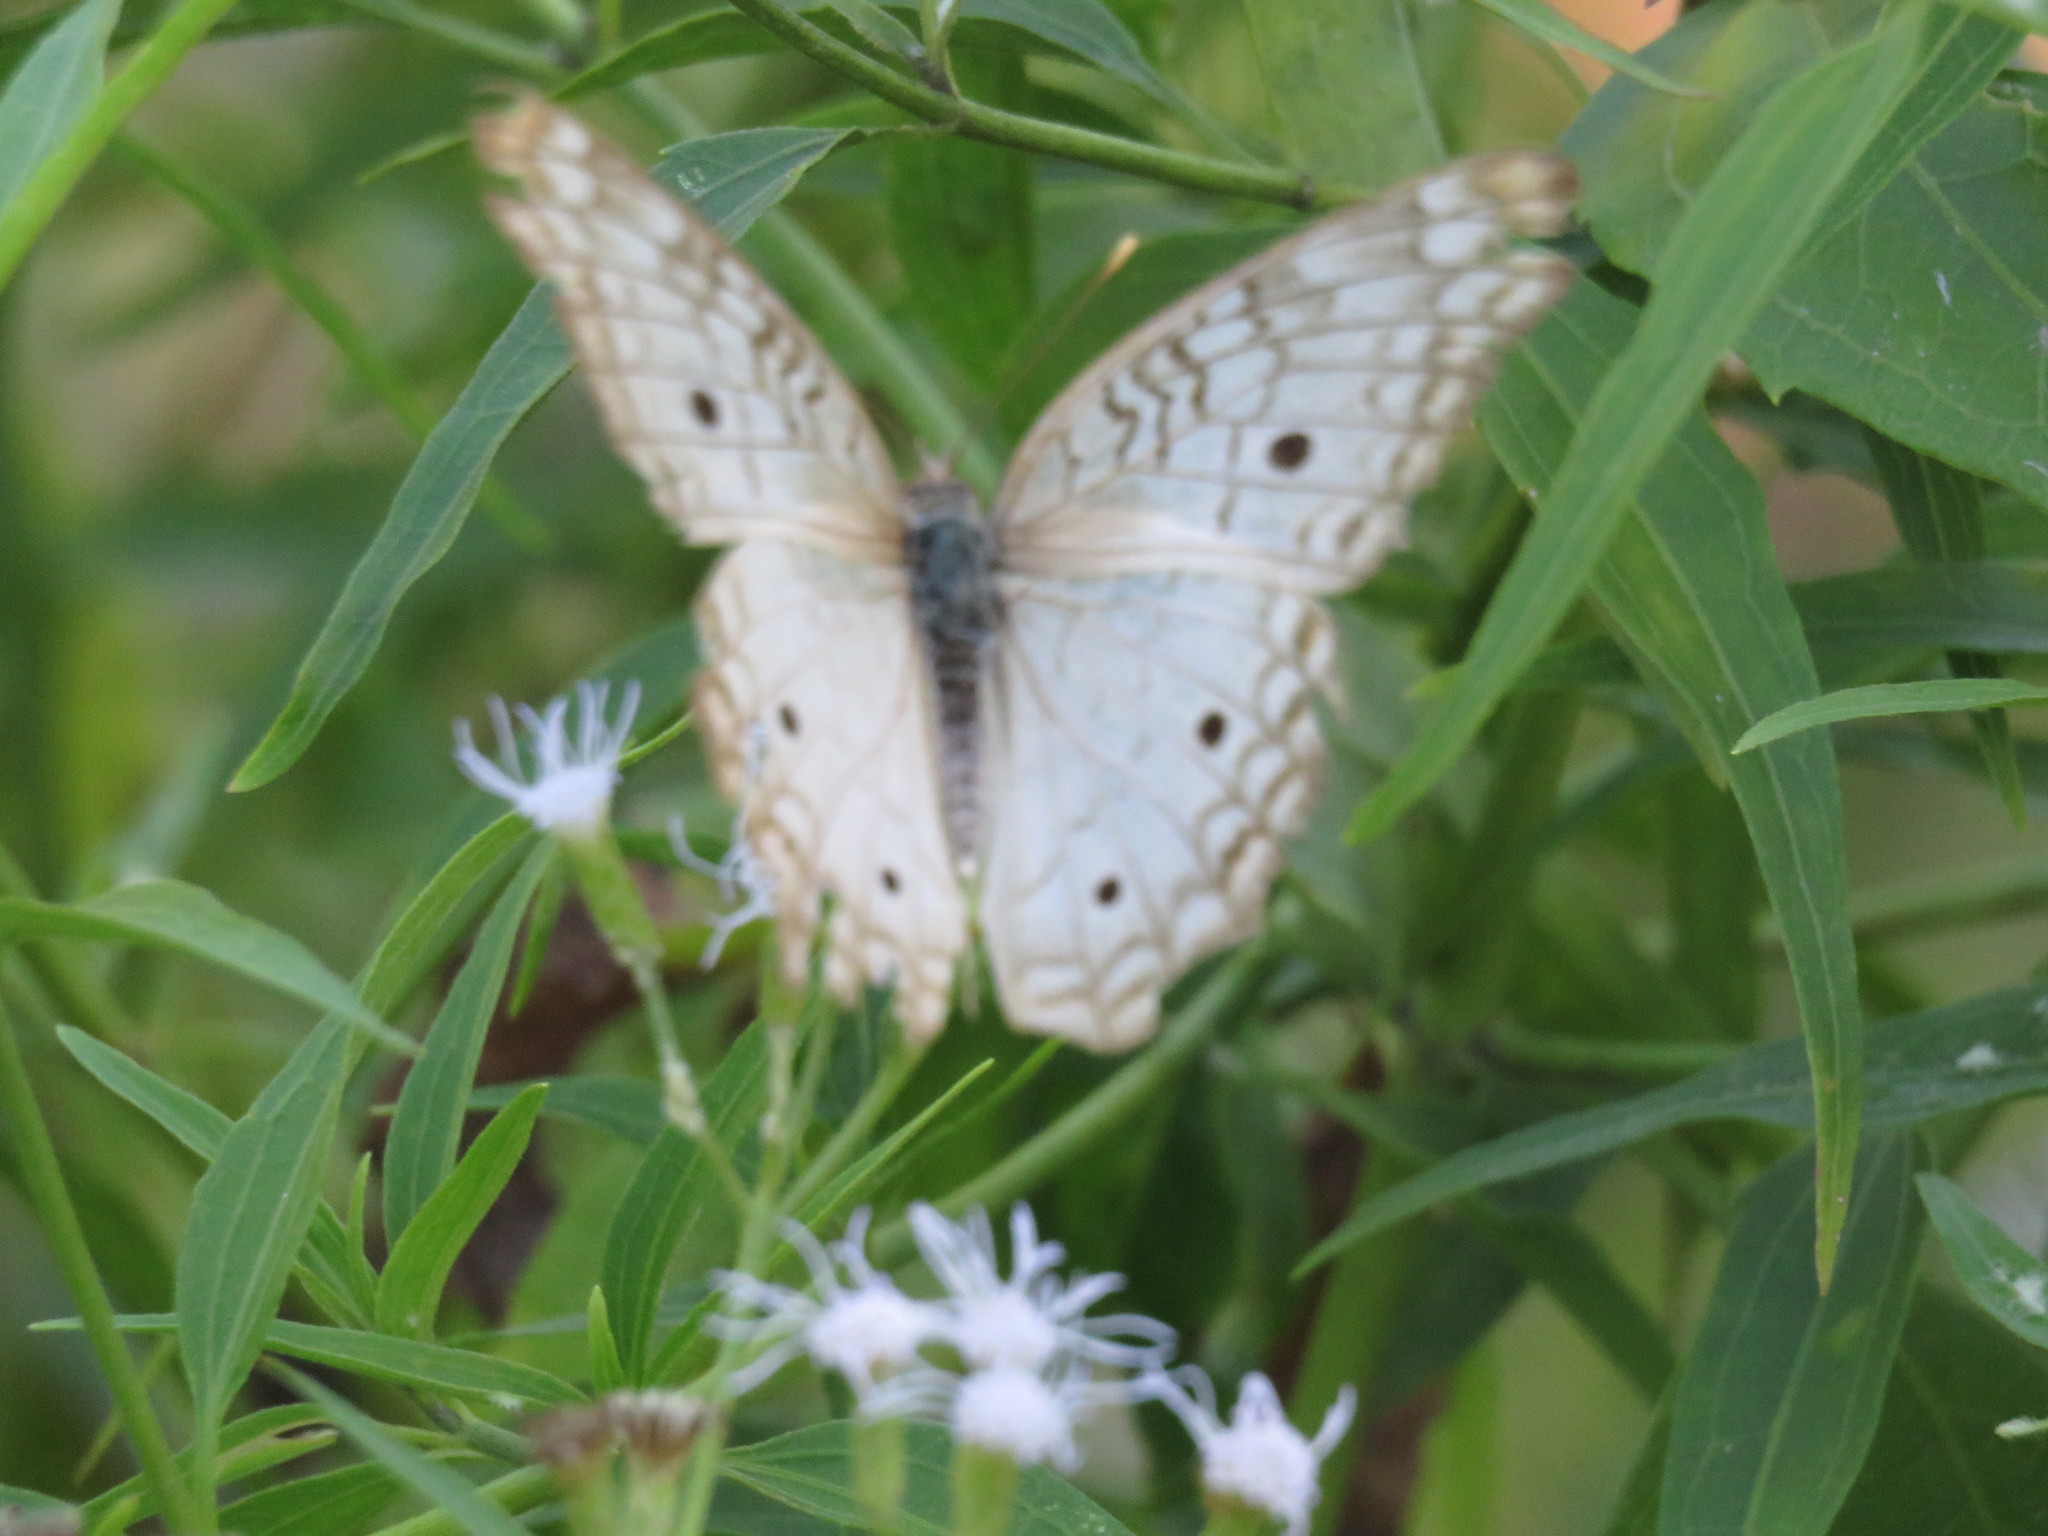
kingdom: Animalia
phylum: Arthropoda
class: Insecta
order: Lepidoptera
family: Nymphalidae
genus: Anartia
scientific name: Anartia jatrophae
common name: White peacock
